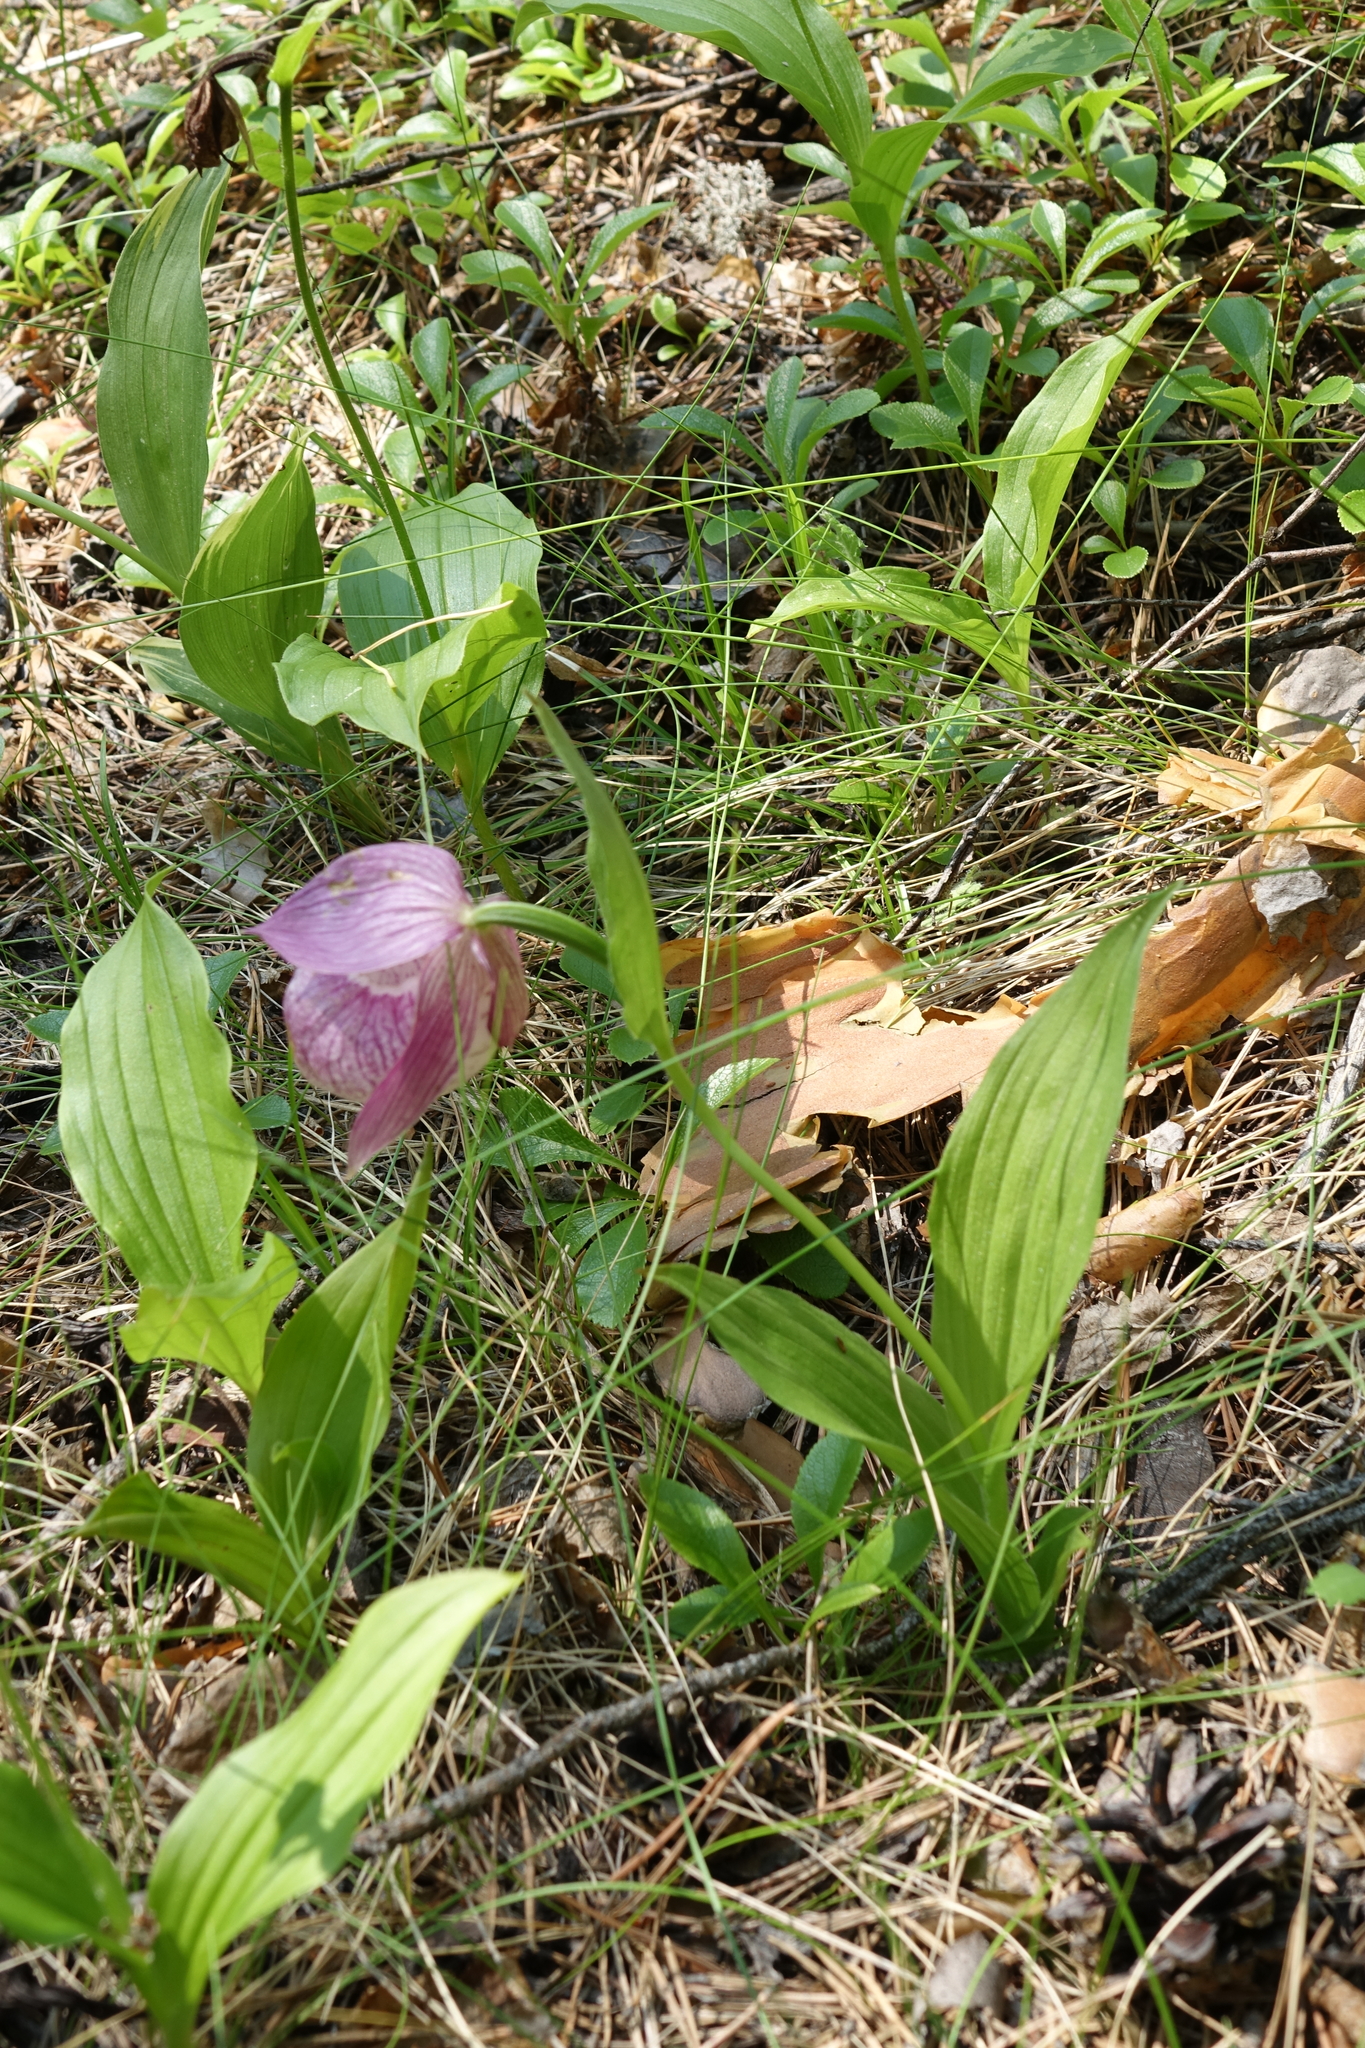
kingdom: Plantae
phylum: Tracheophyta
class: Liliopsida
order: Asparagales
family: Orchidaceae
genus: Cypripedium
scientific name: Cypripedium macranthos
